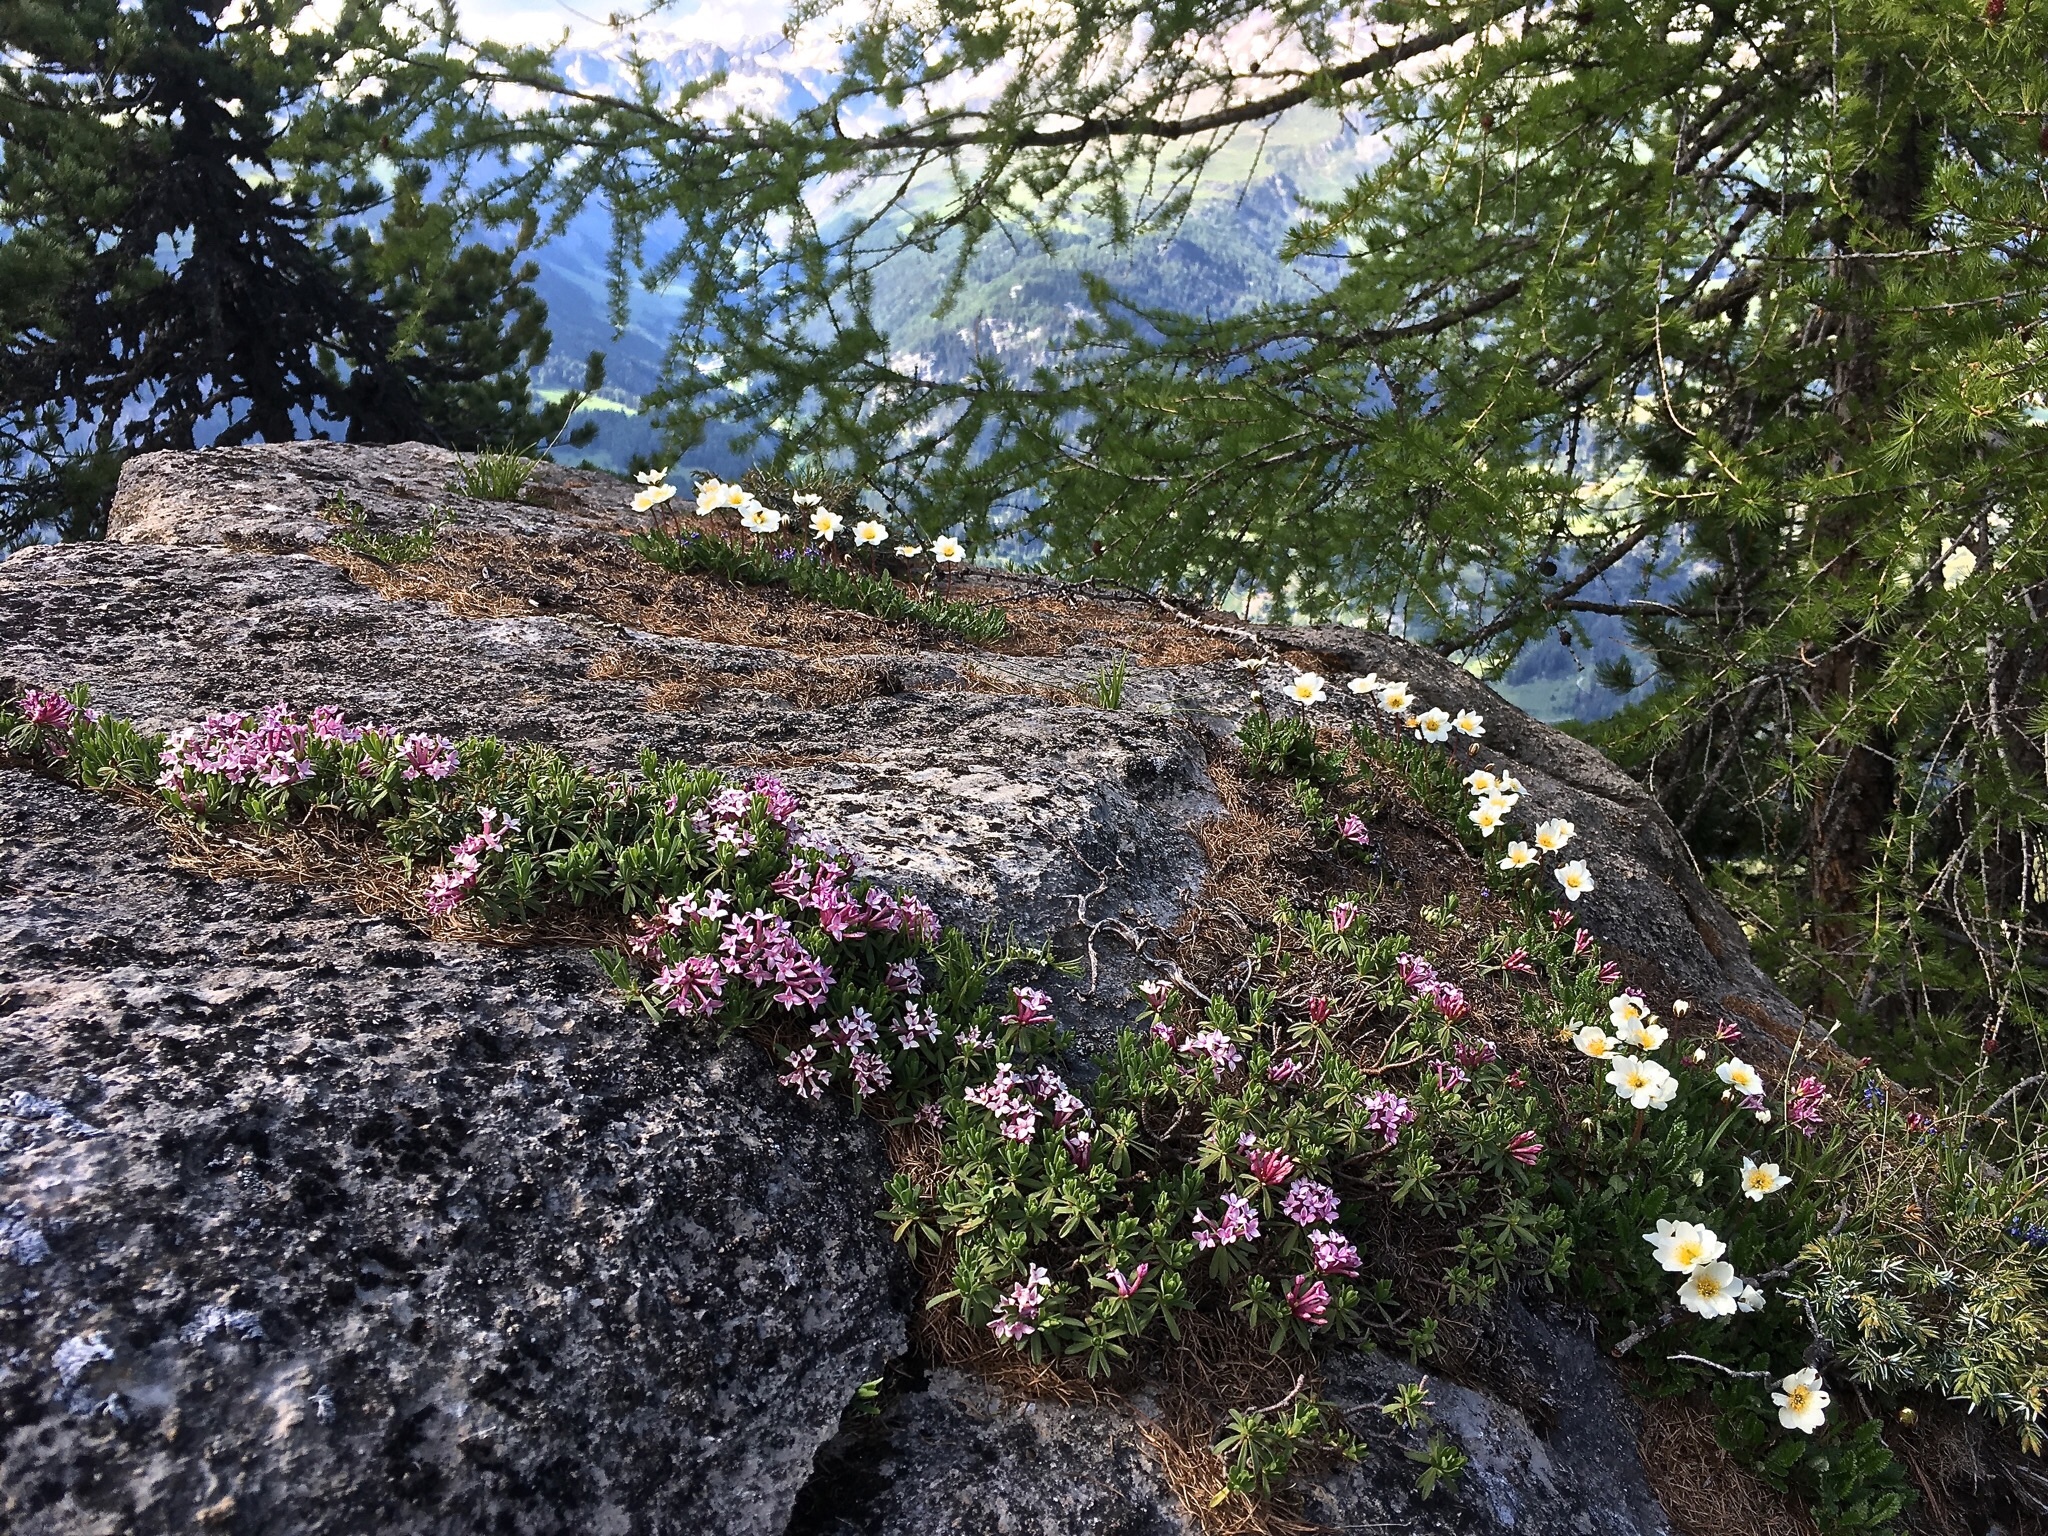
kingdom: Plantae
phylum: Tracheophyta
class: Magnoliopsida
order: Rosales
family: Rosaceae
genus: Dryas
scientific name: Dryas octopetala
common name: Eight-petal mountain-avens
